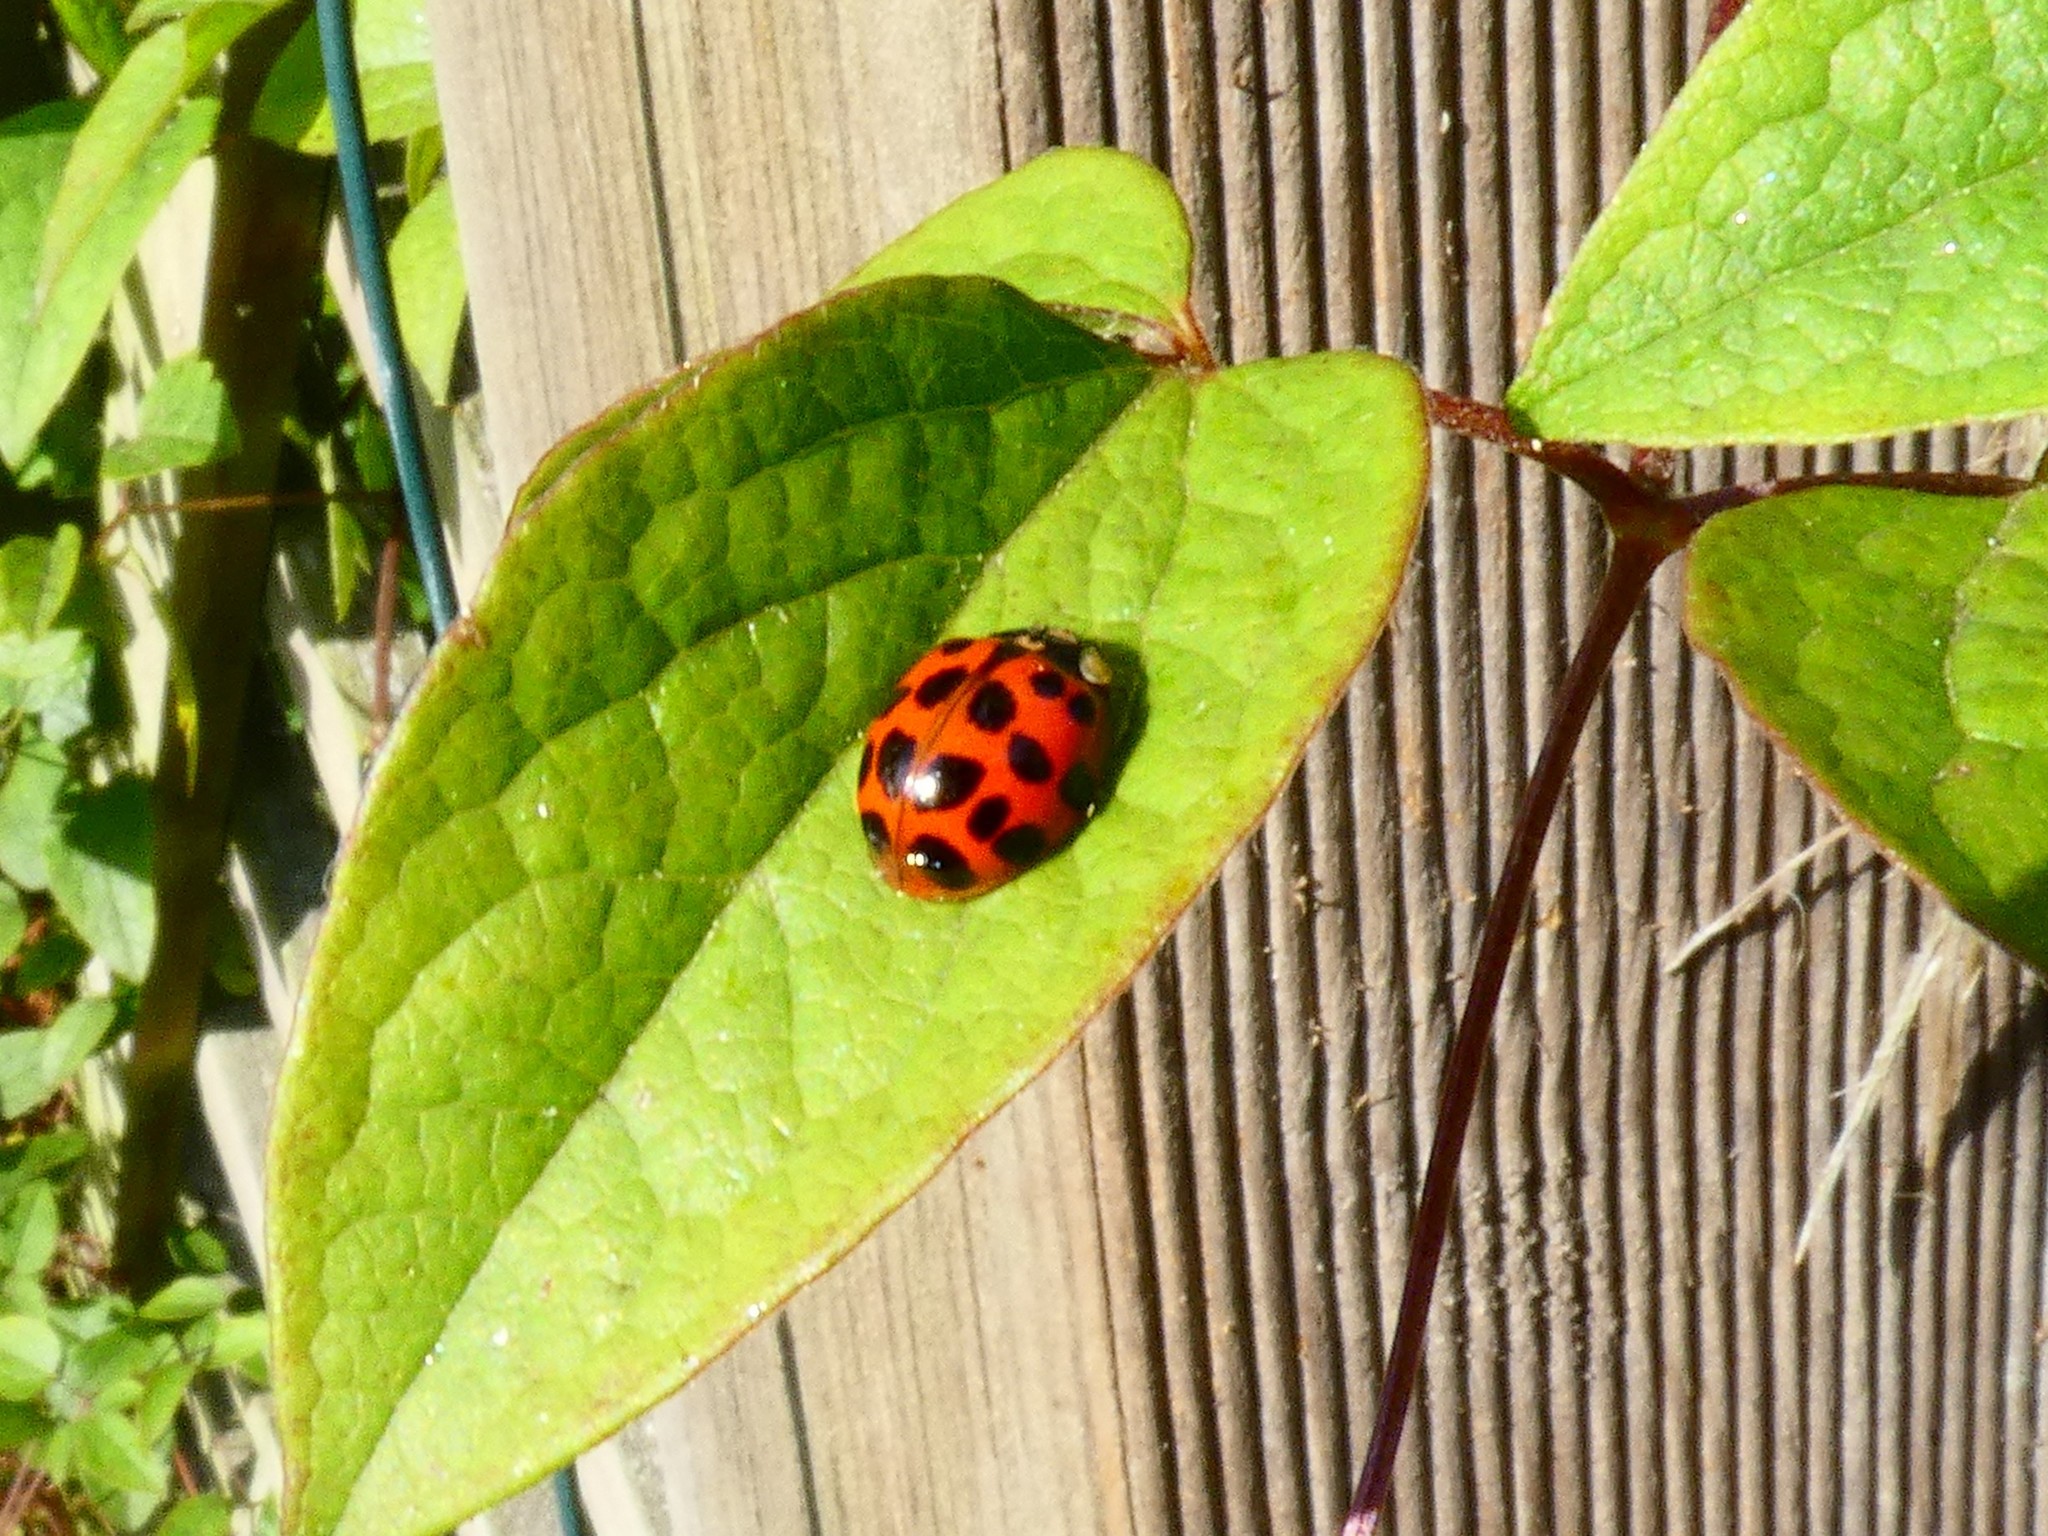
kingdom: Animalia
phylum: Arthropoda
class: Insecta
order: Coleoptera
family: Coccinellidae
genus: Harmonia
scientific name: Harmonia axyridis
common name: Harlequin ladybird
